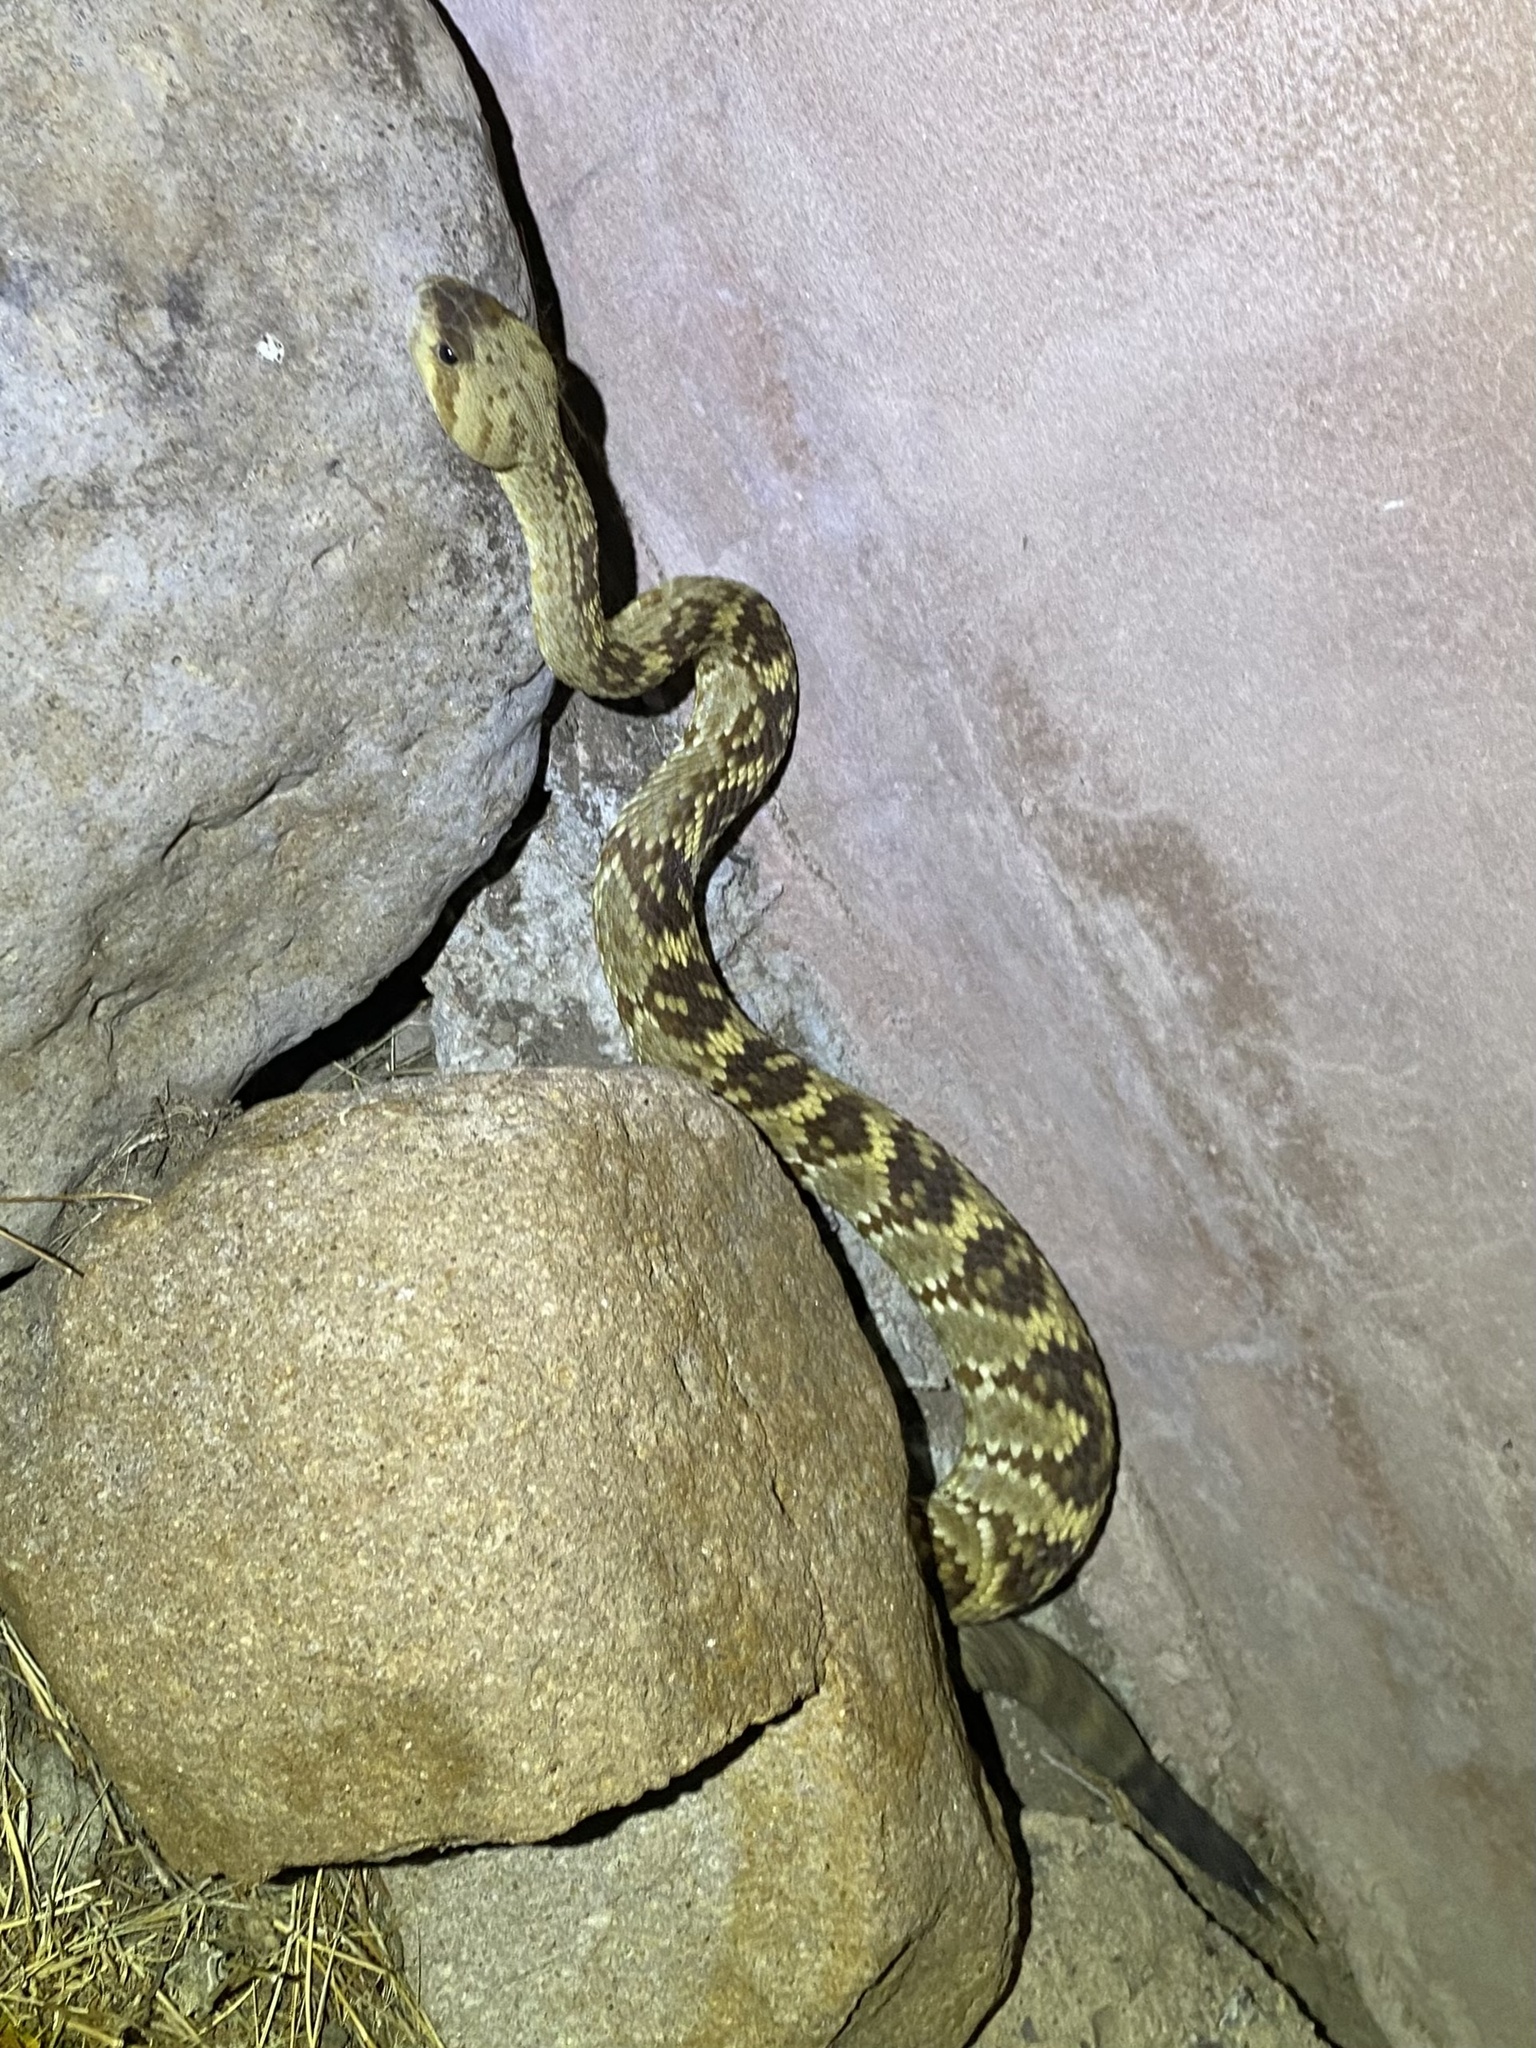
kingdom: Animalia
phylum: Chordata
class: Squamata
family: Viperidae
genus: Crotalus
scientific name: Crotalus molossus
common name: Black tailed rattlesnake
